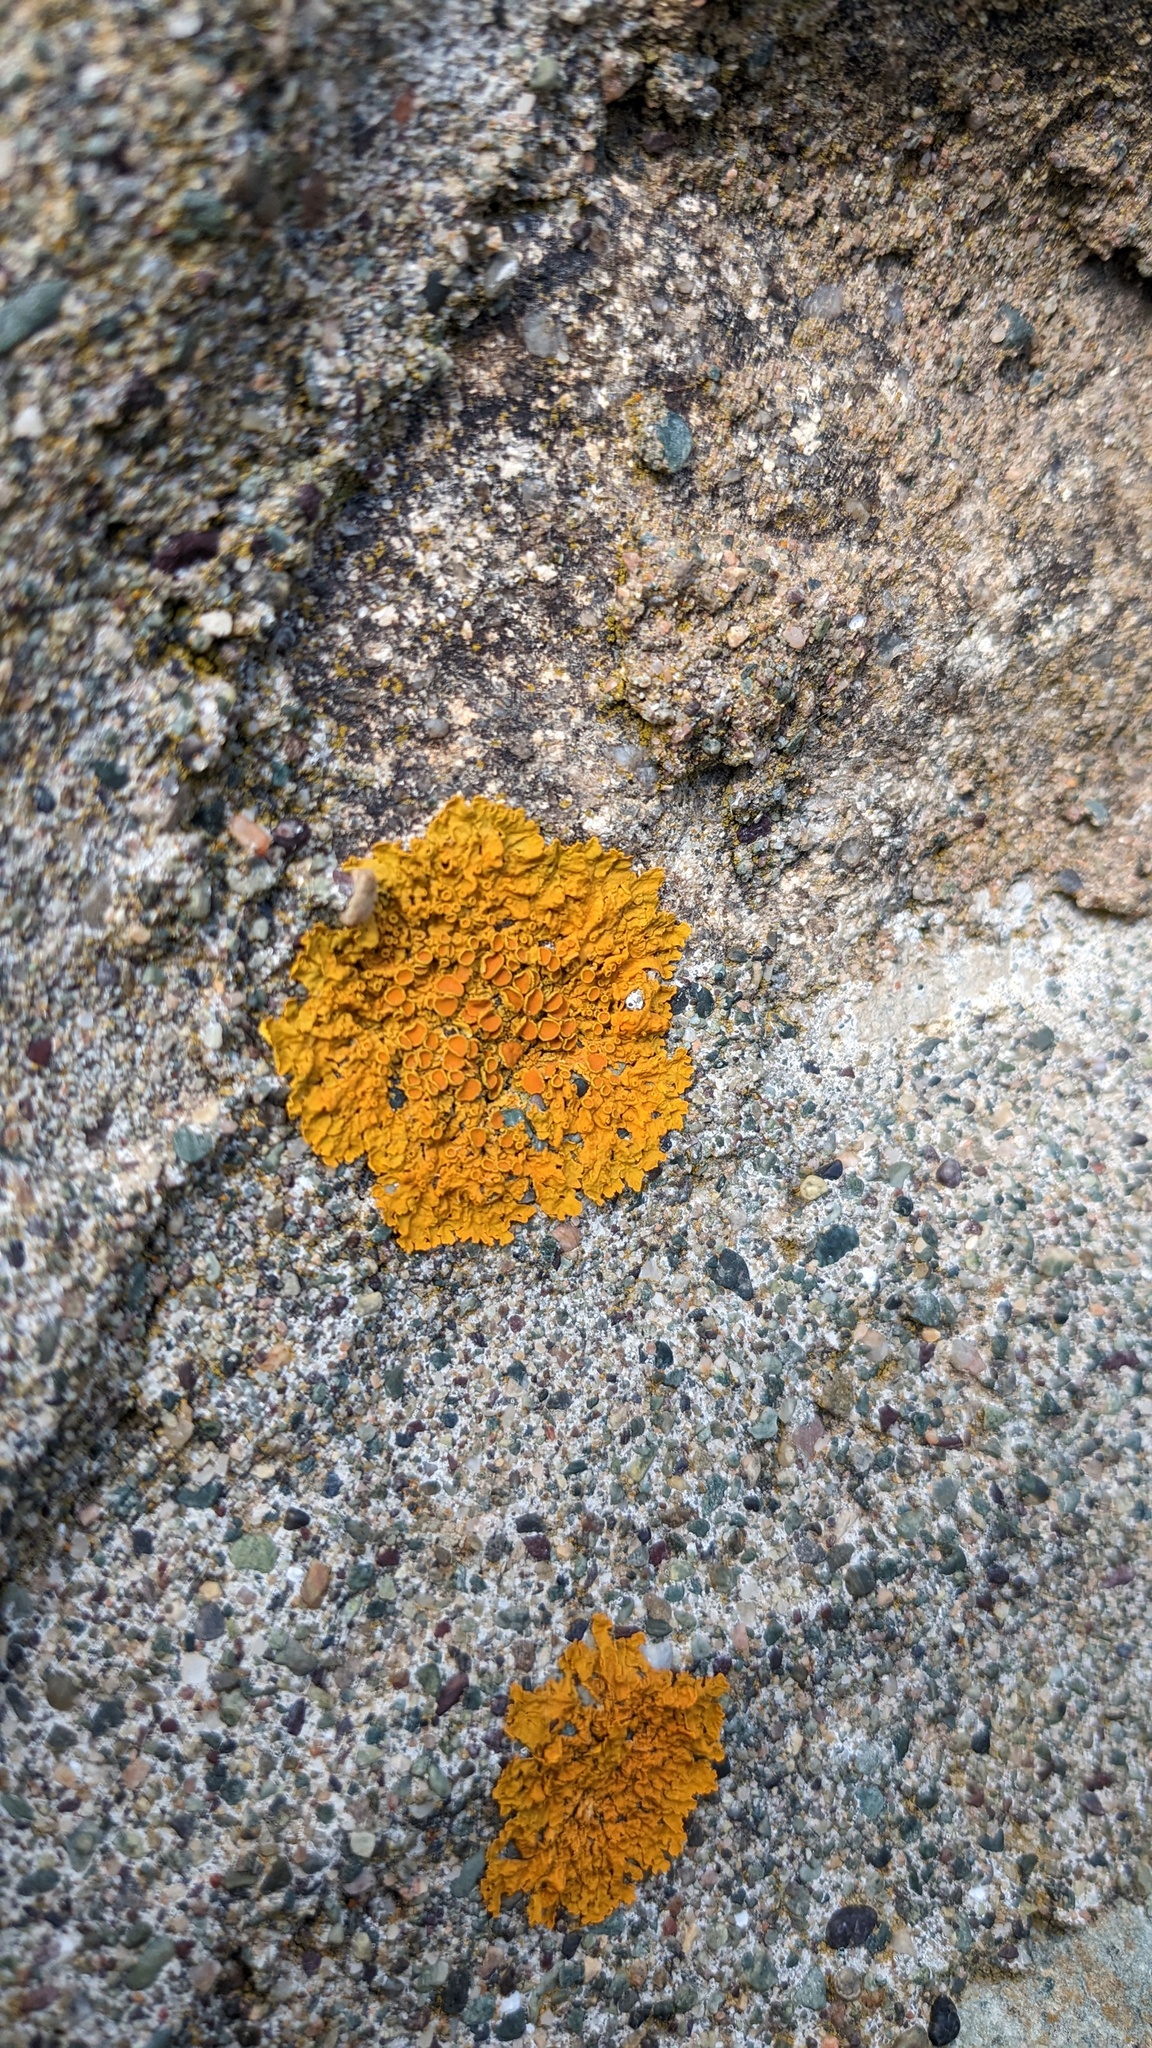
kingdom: Fungi
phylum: Ascomycota
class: Lecanoromycetes
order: Teloschistales
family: Teloschistaceae
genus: Xanthoria
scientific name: Xanthoria parietina
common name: Common orange lichen
